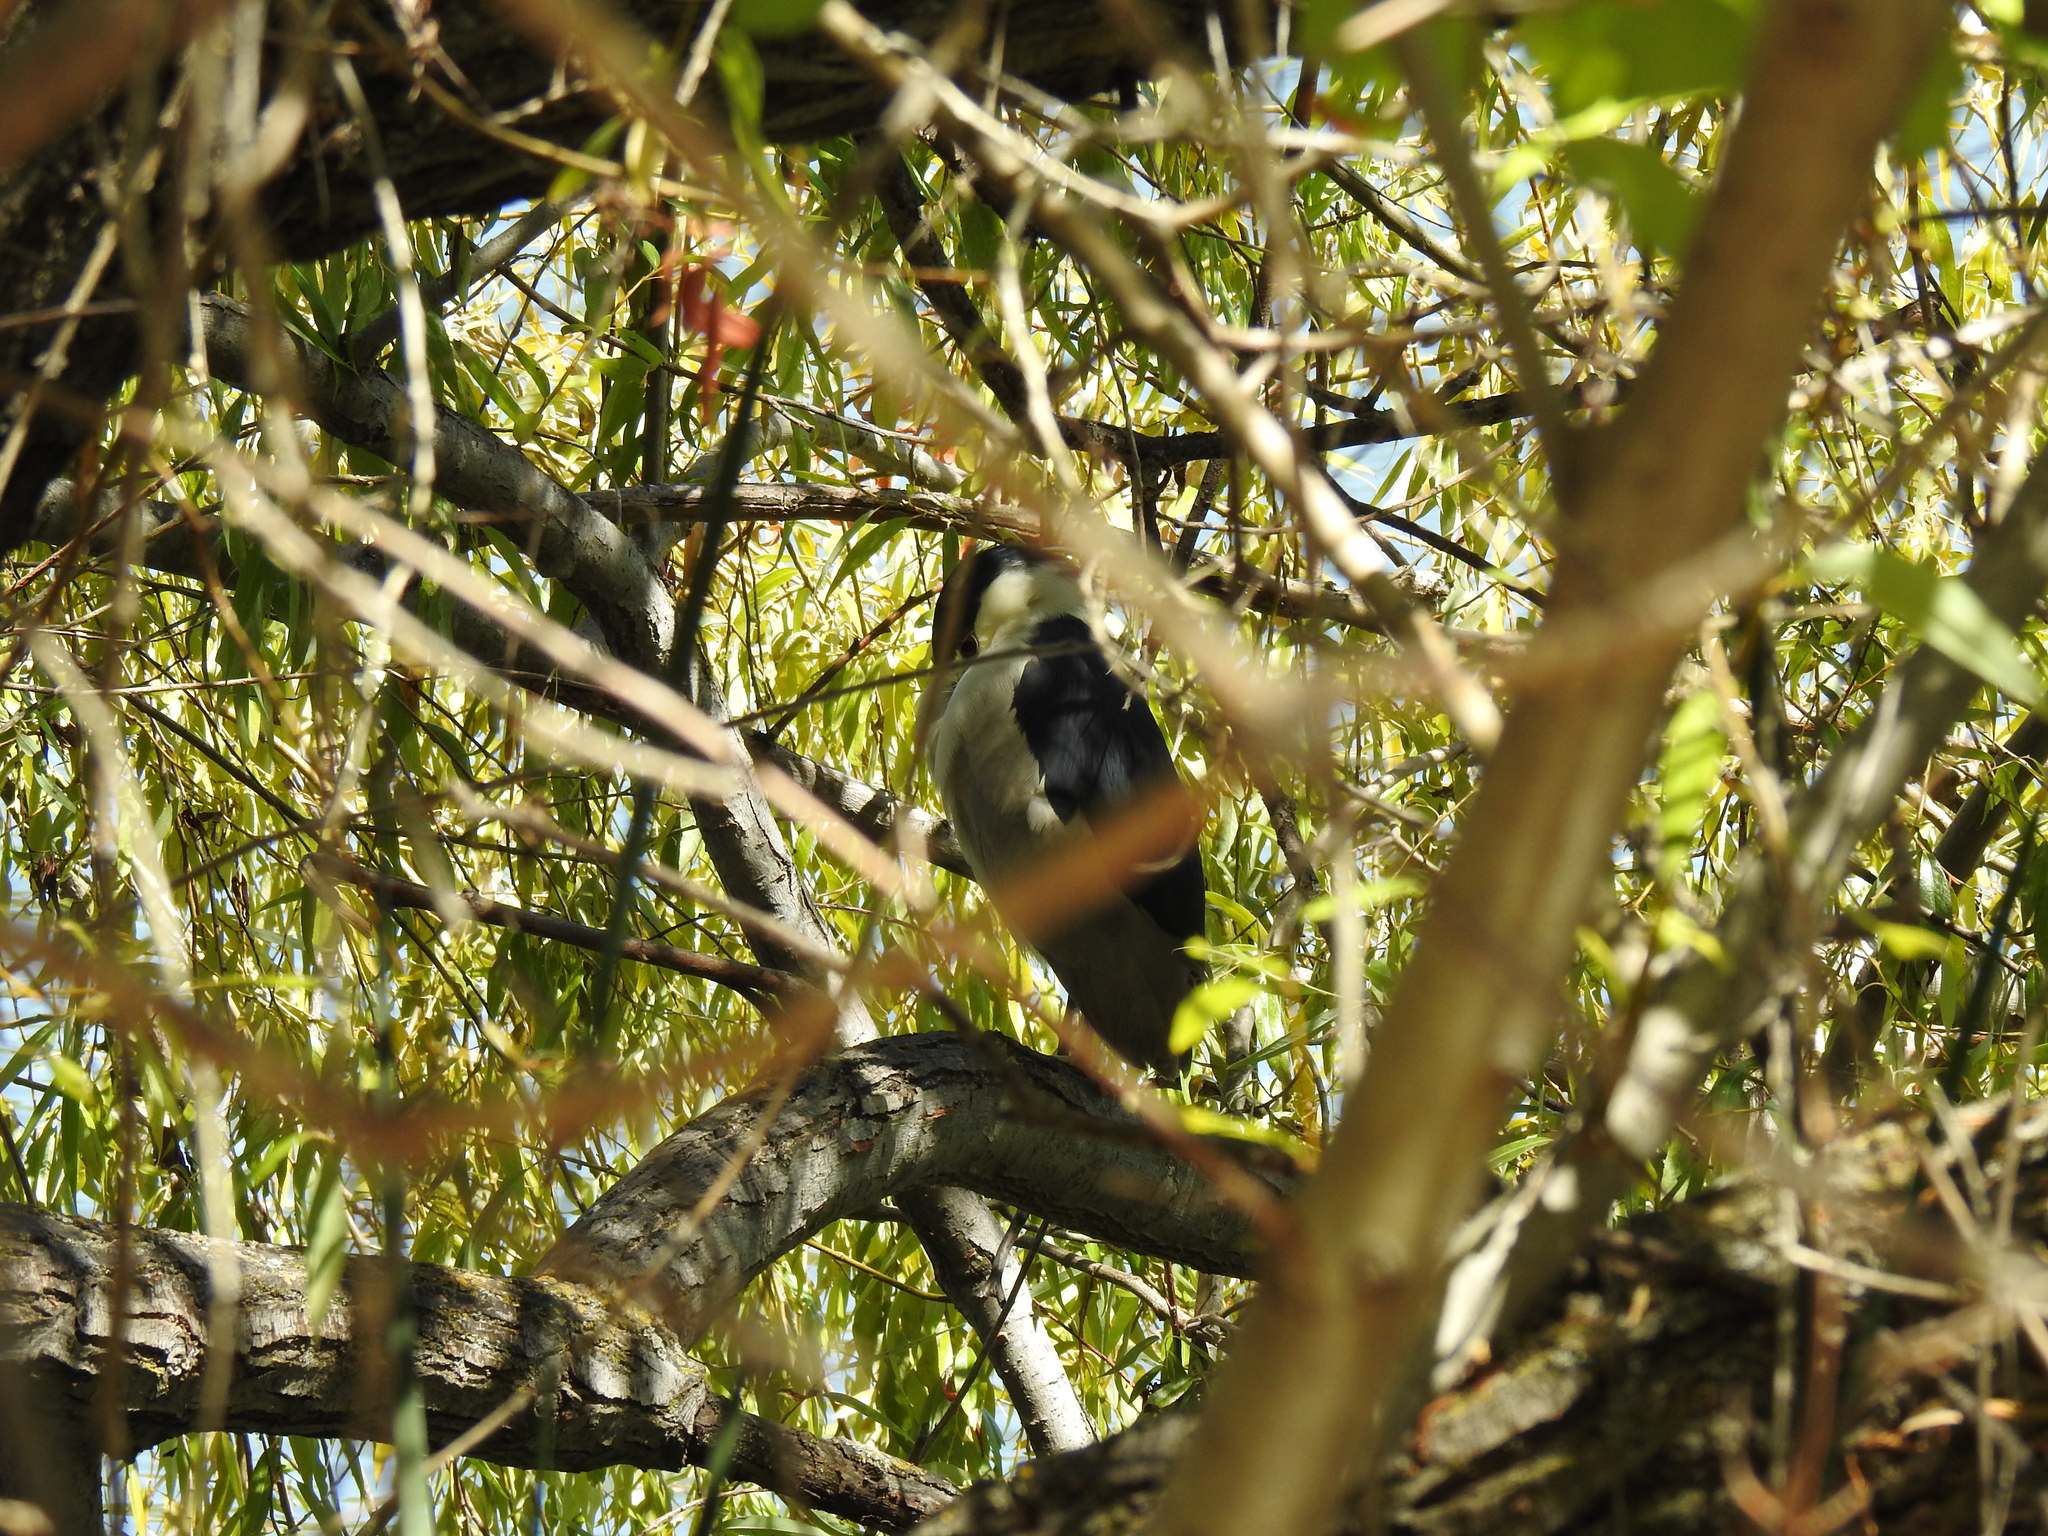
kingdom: Animalia
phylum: Chordata
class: Aves
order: Pelecaniformes
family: Ardeidae
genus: Nycticorax
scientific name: Nycticorax nycticorax
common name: Black-crowned night heron
